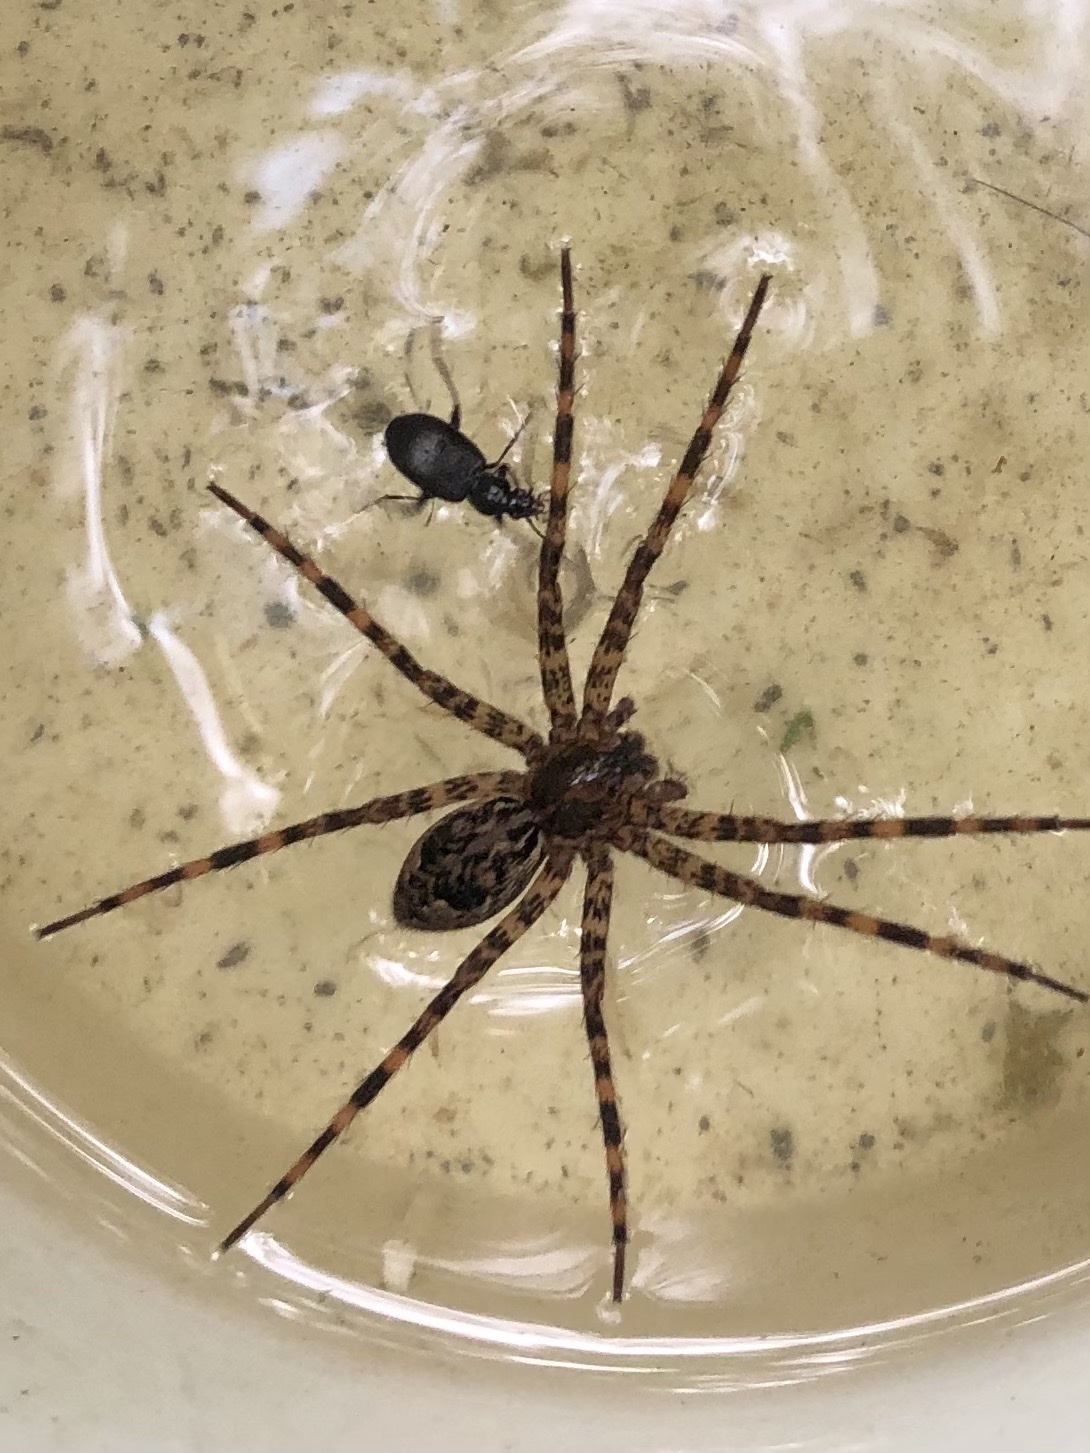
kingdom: Animalia
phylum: Arthropoda
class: Arachnida
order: Araneae
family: Pisauridae
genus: Dolomedes
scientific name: Dolomedes tenebrosus
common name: Dark fishing spider
